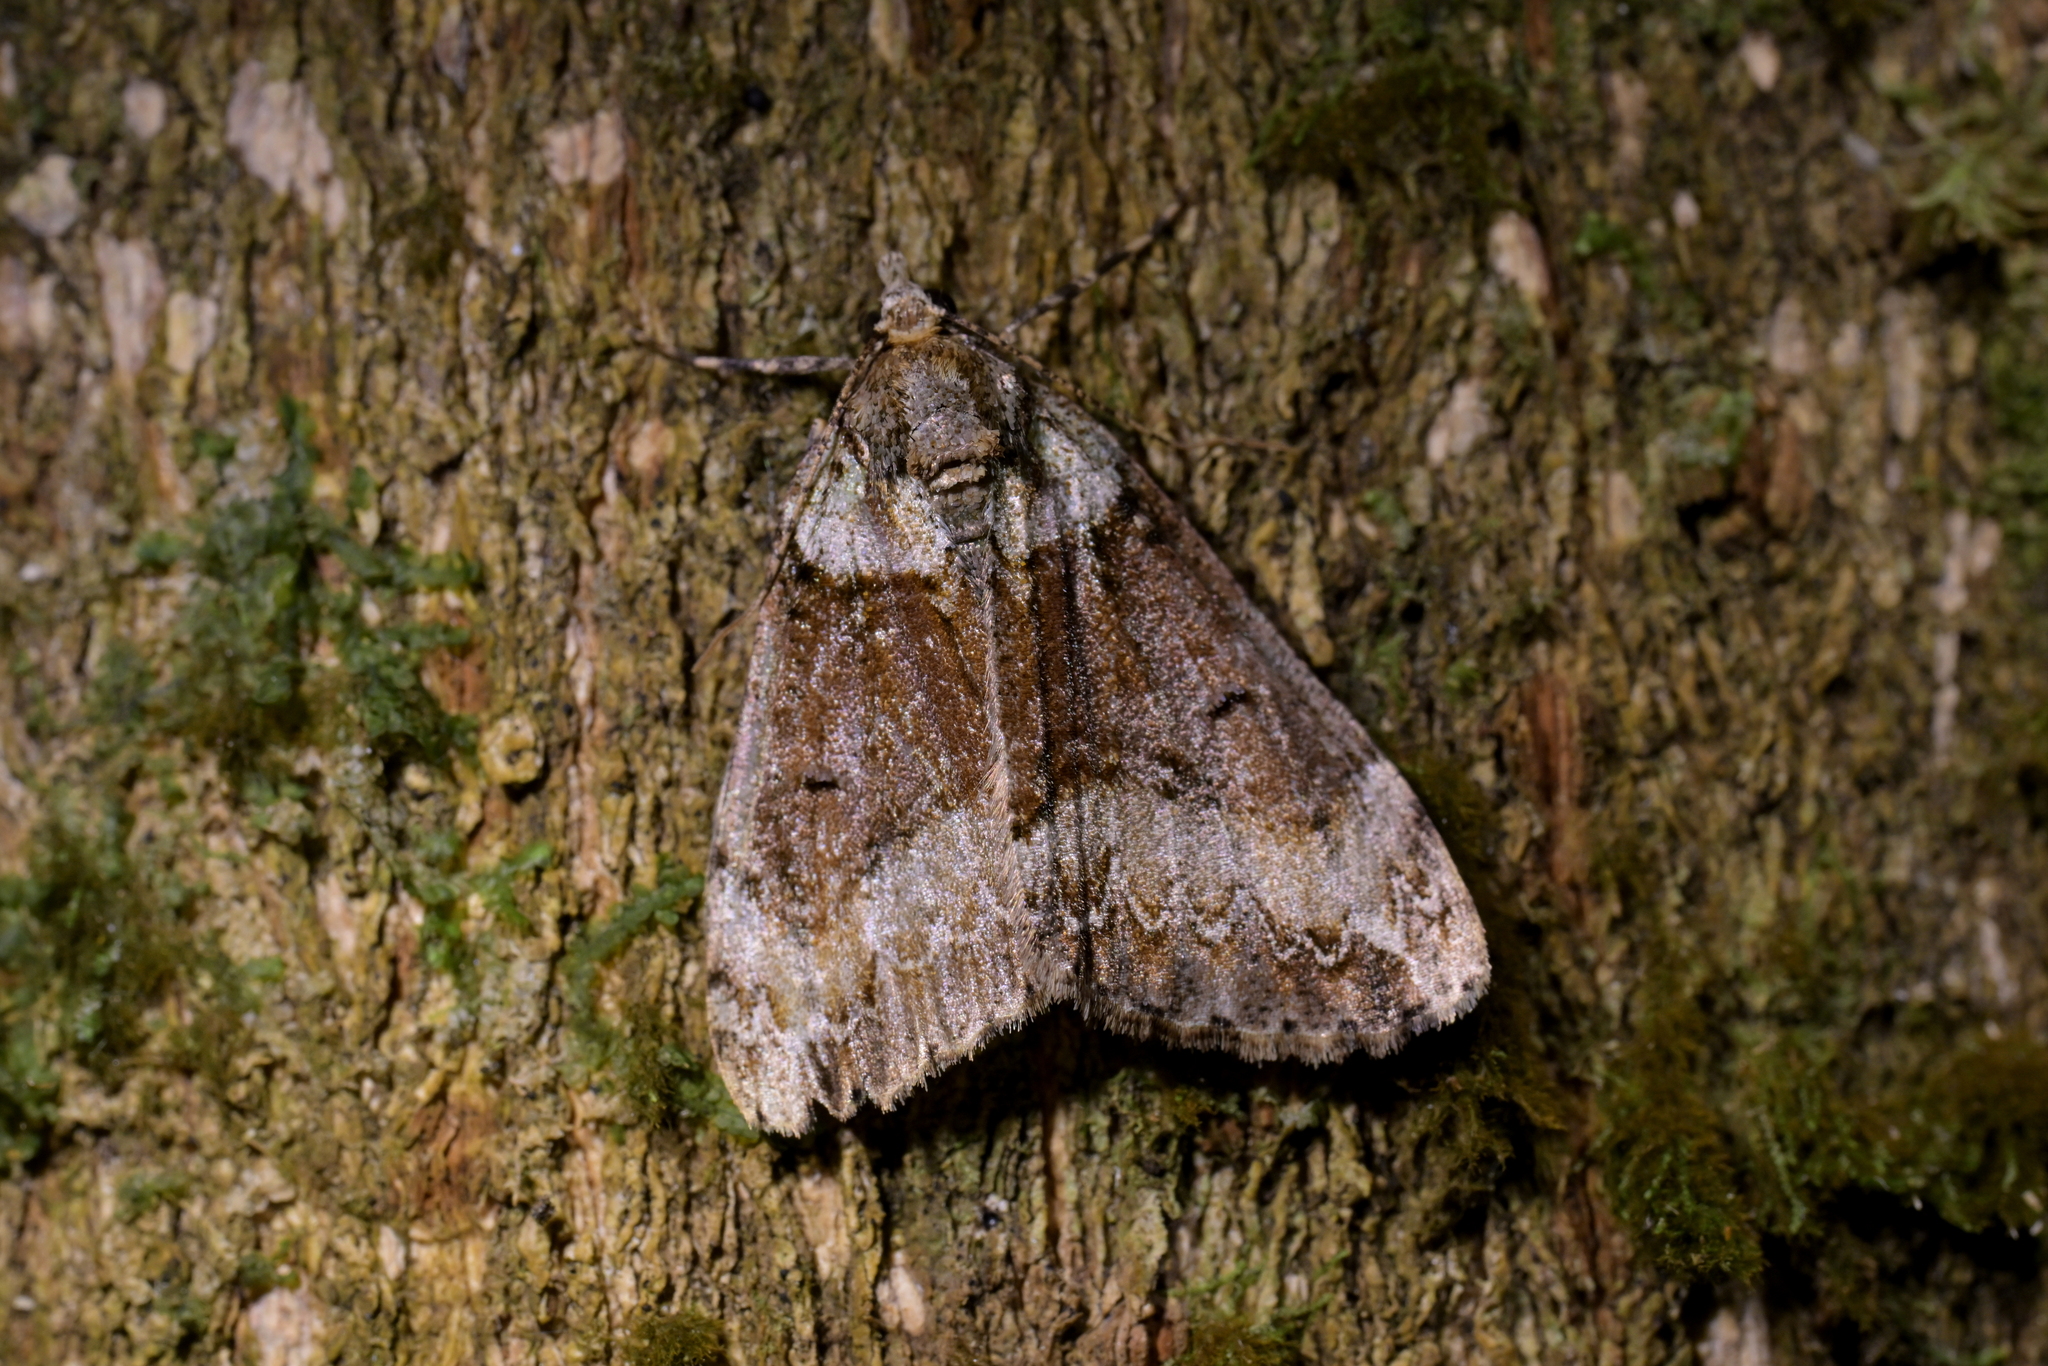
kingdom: Animalia
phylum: Arthropoda
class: Insecta
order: Lepidoptera
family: Geometridae
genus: Pseudocoremia
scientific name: Pseudocoremia suavis
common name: Common forest looper
